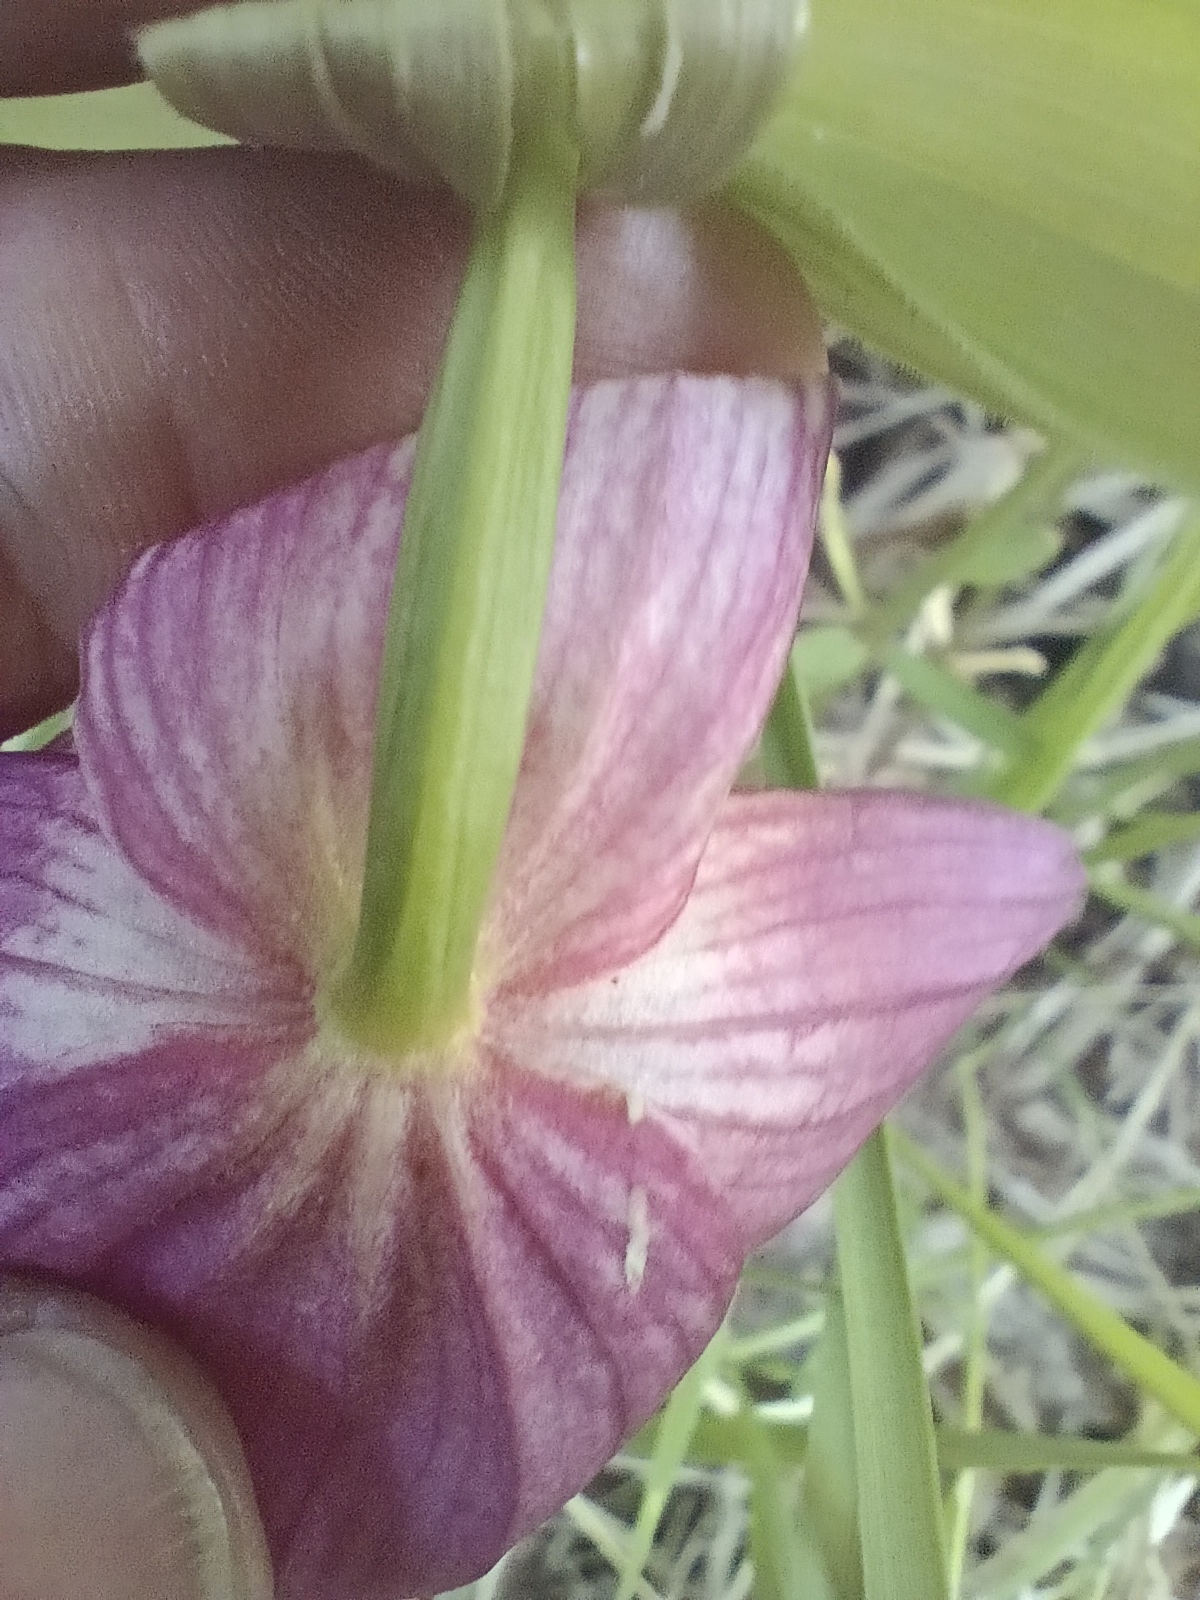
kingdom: Plantae
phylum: Tracheophyta
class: Liliopsida
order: Asparagales
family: Orchidaceae
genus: Cypripedium
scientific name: Cypripedium macranthos
